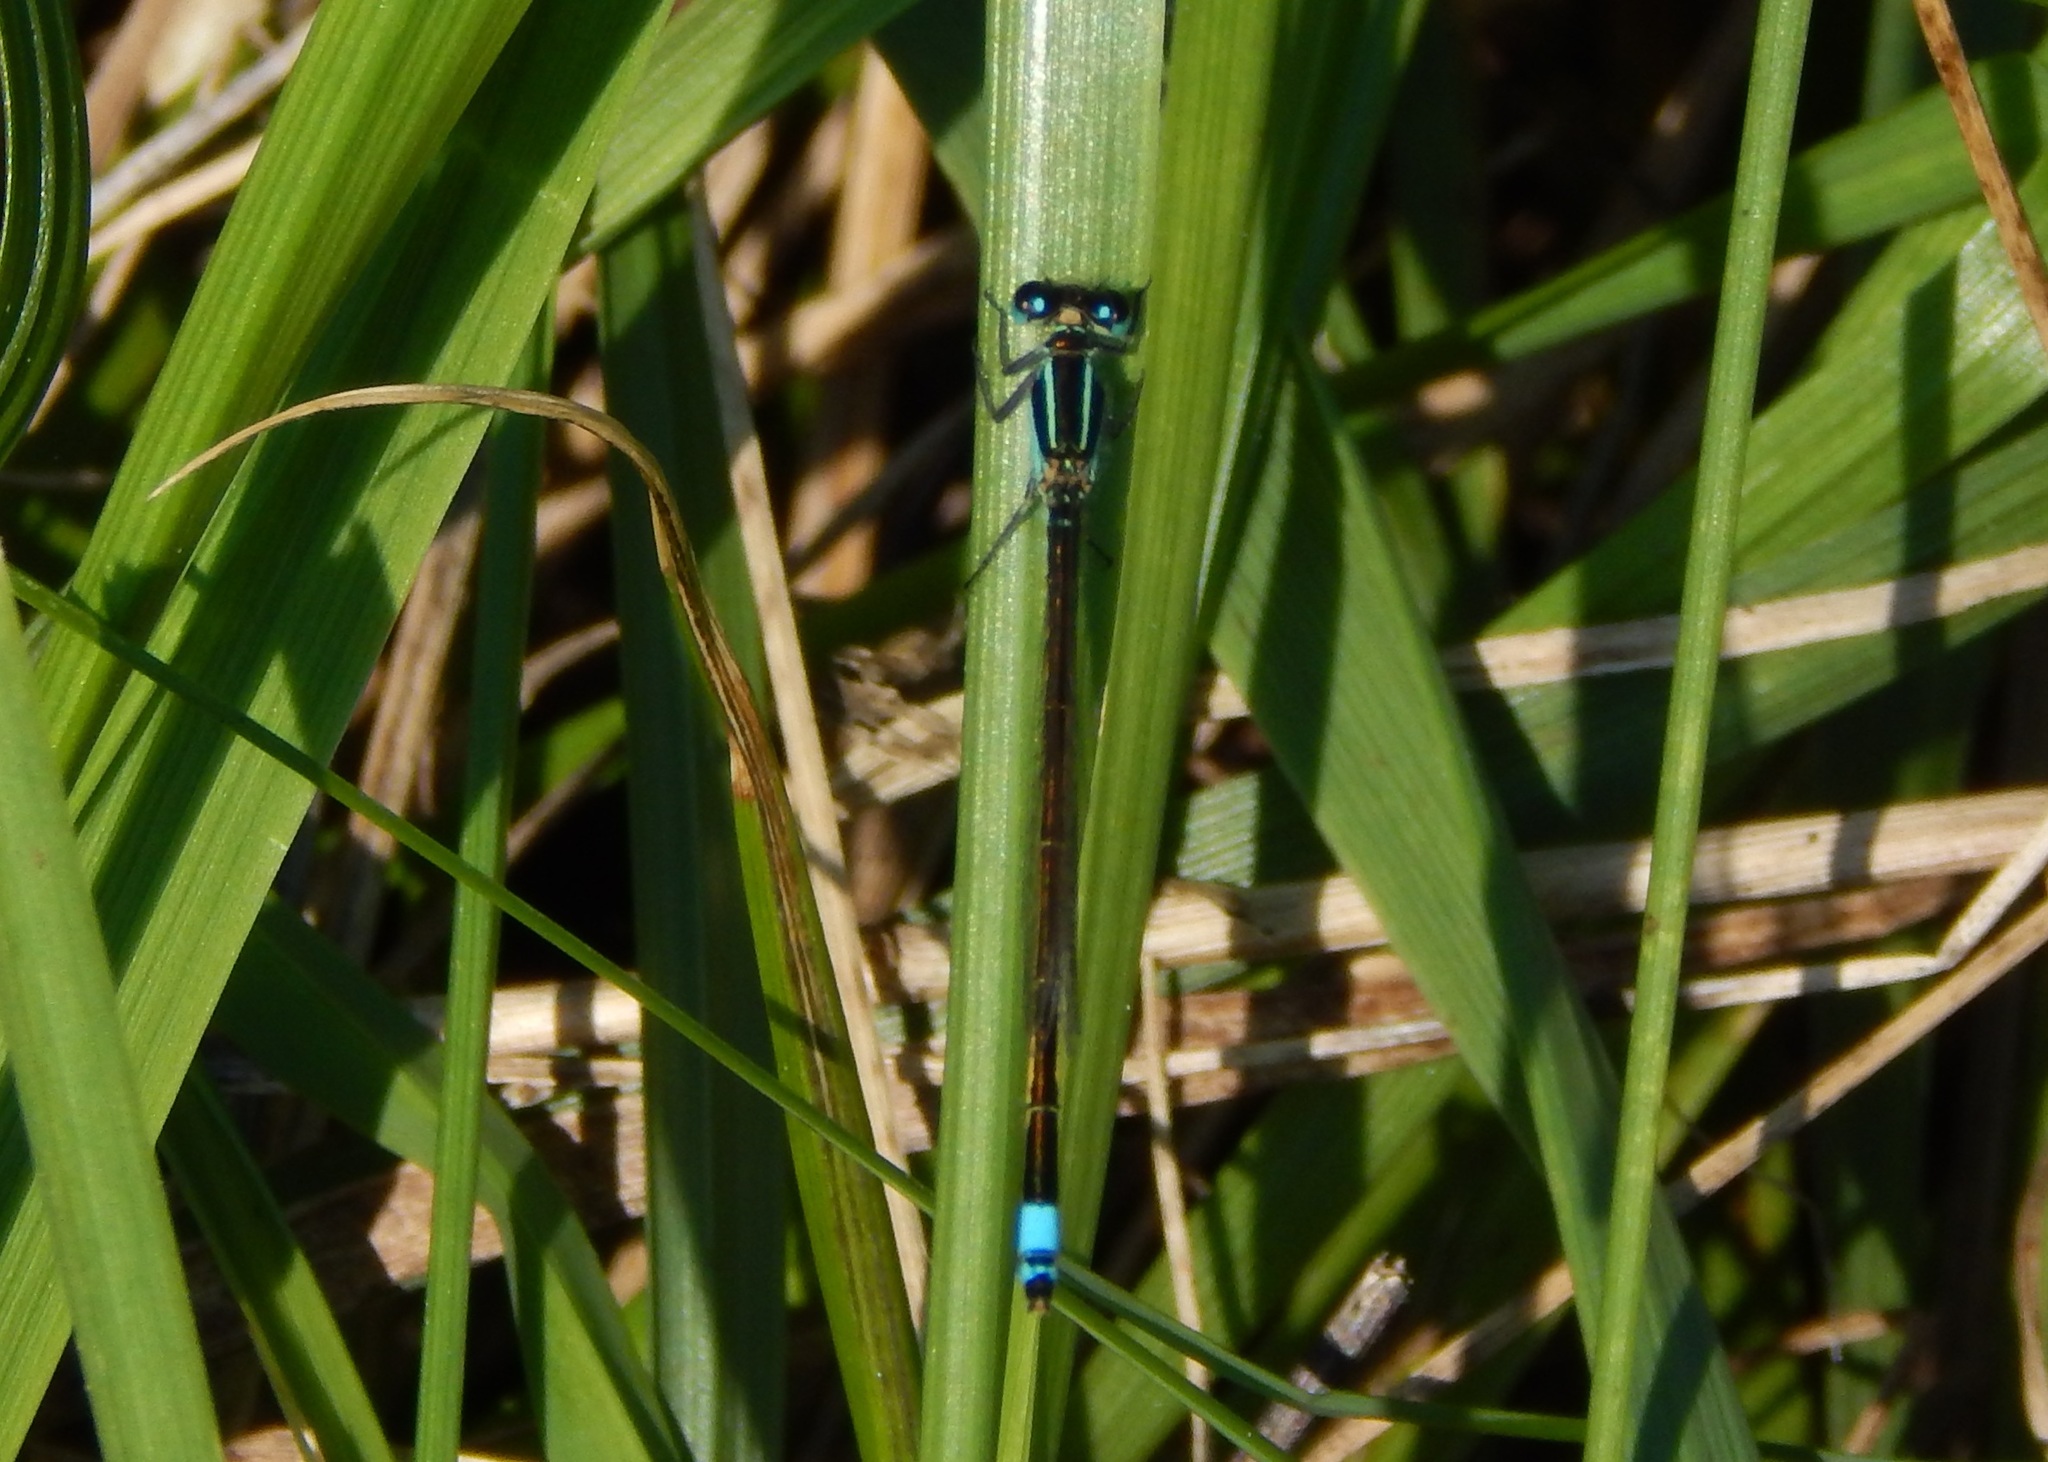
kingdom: Animalia
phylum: Arthropoda
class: Insecta
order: Odonata
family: Coenagrionidae
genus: Ischnura
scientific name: Ischnura ramburii
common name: Rambur's forktail
